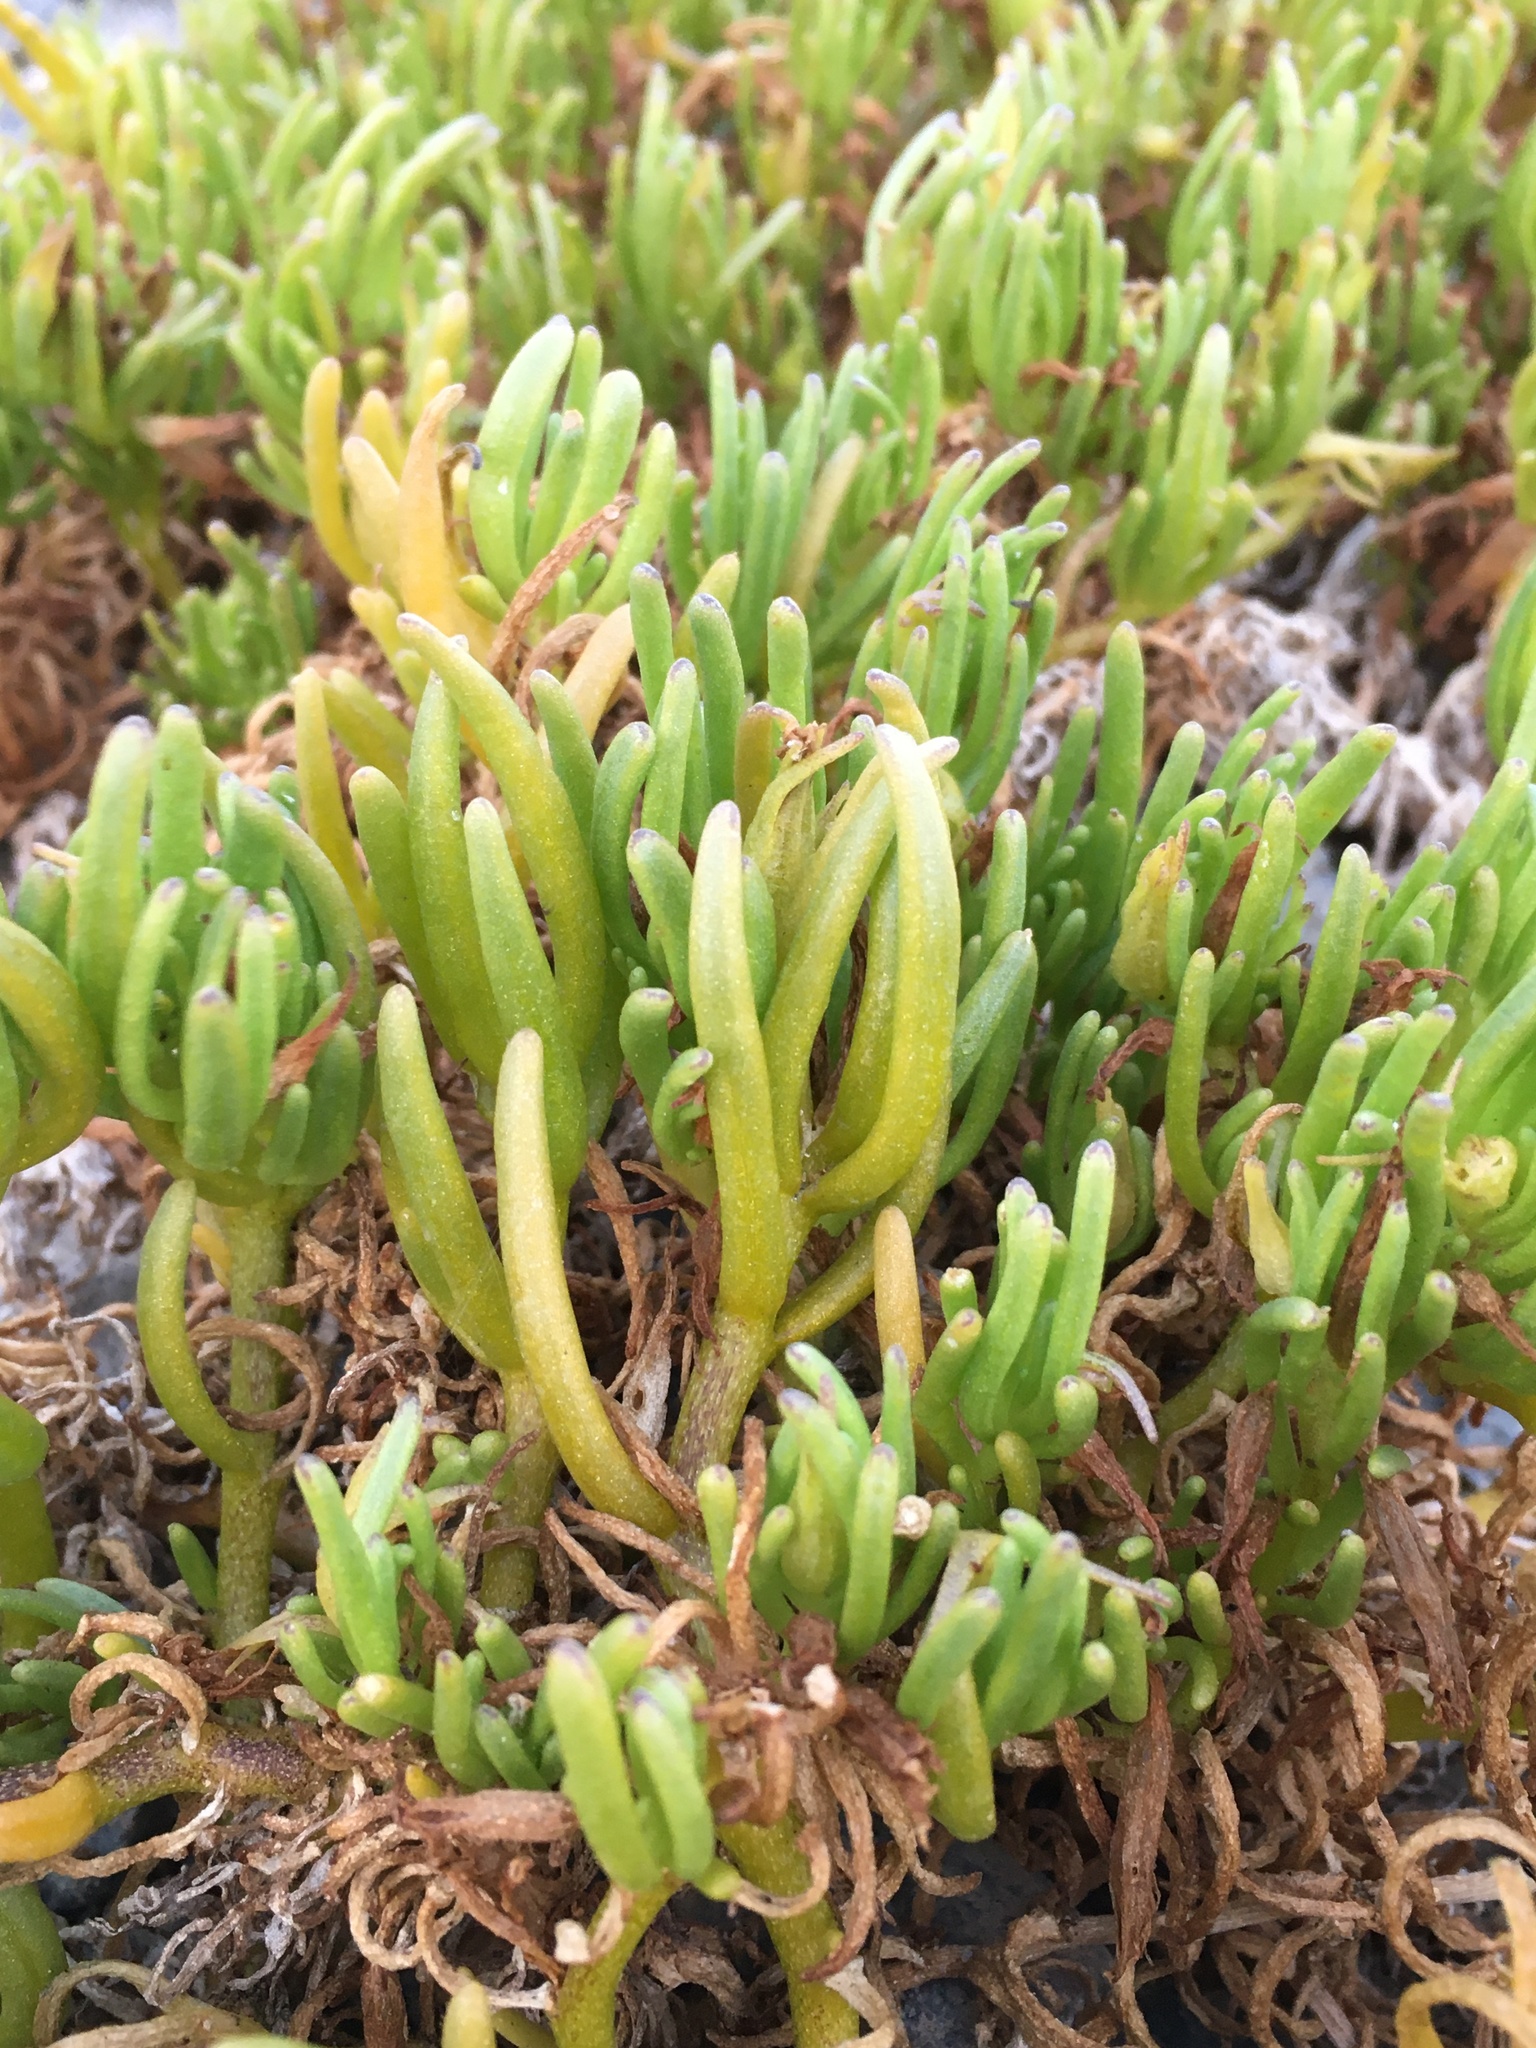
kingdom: Plantae
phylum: Tracheophyta
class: Magnoliopsida
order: Solanales
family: Solanaceae
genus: Nolana
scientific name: Nolana linearifolia
